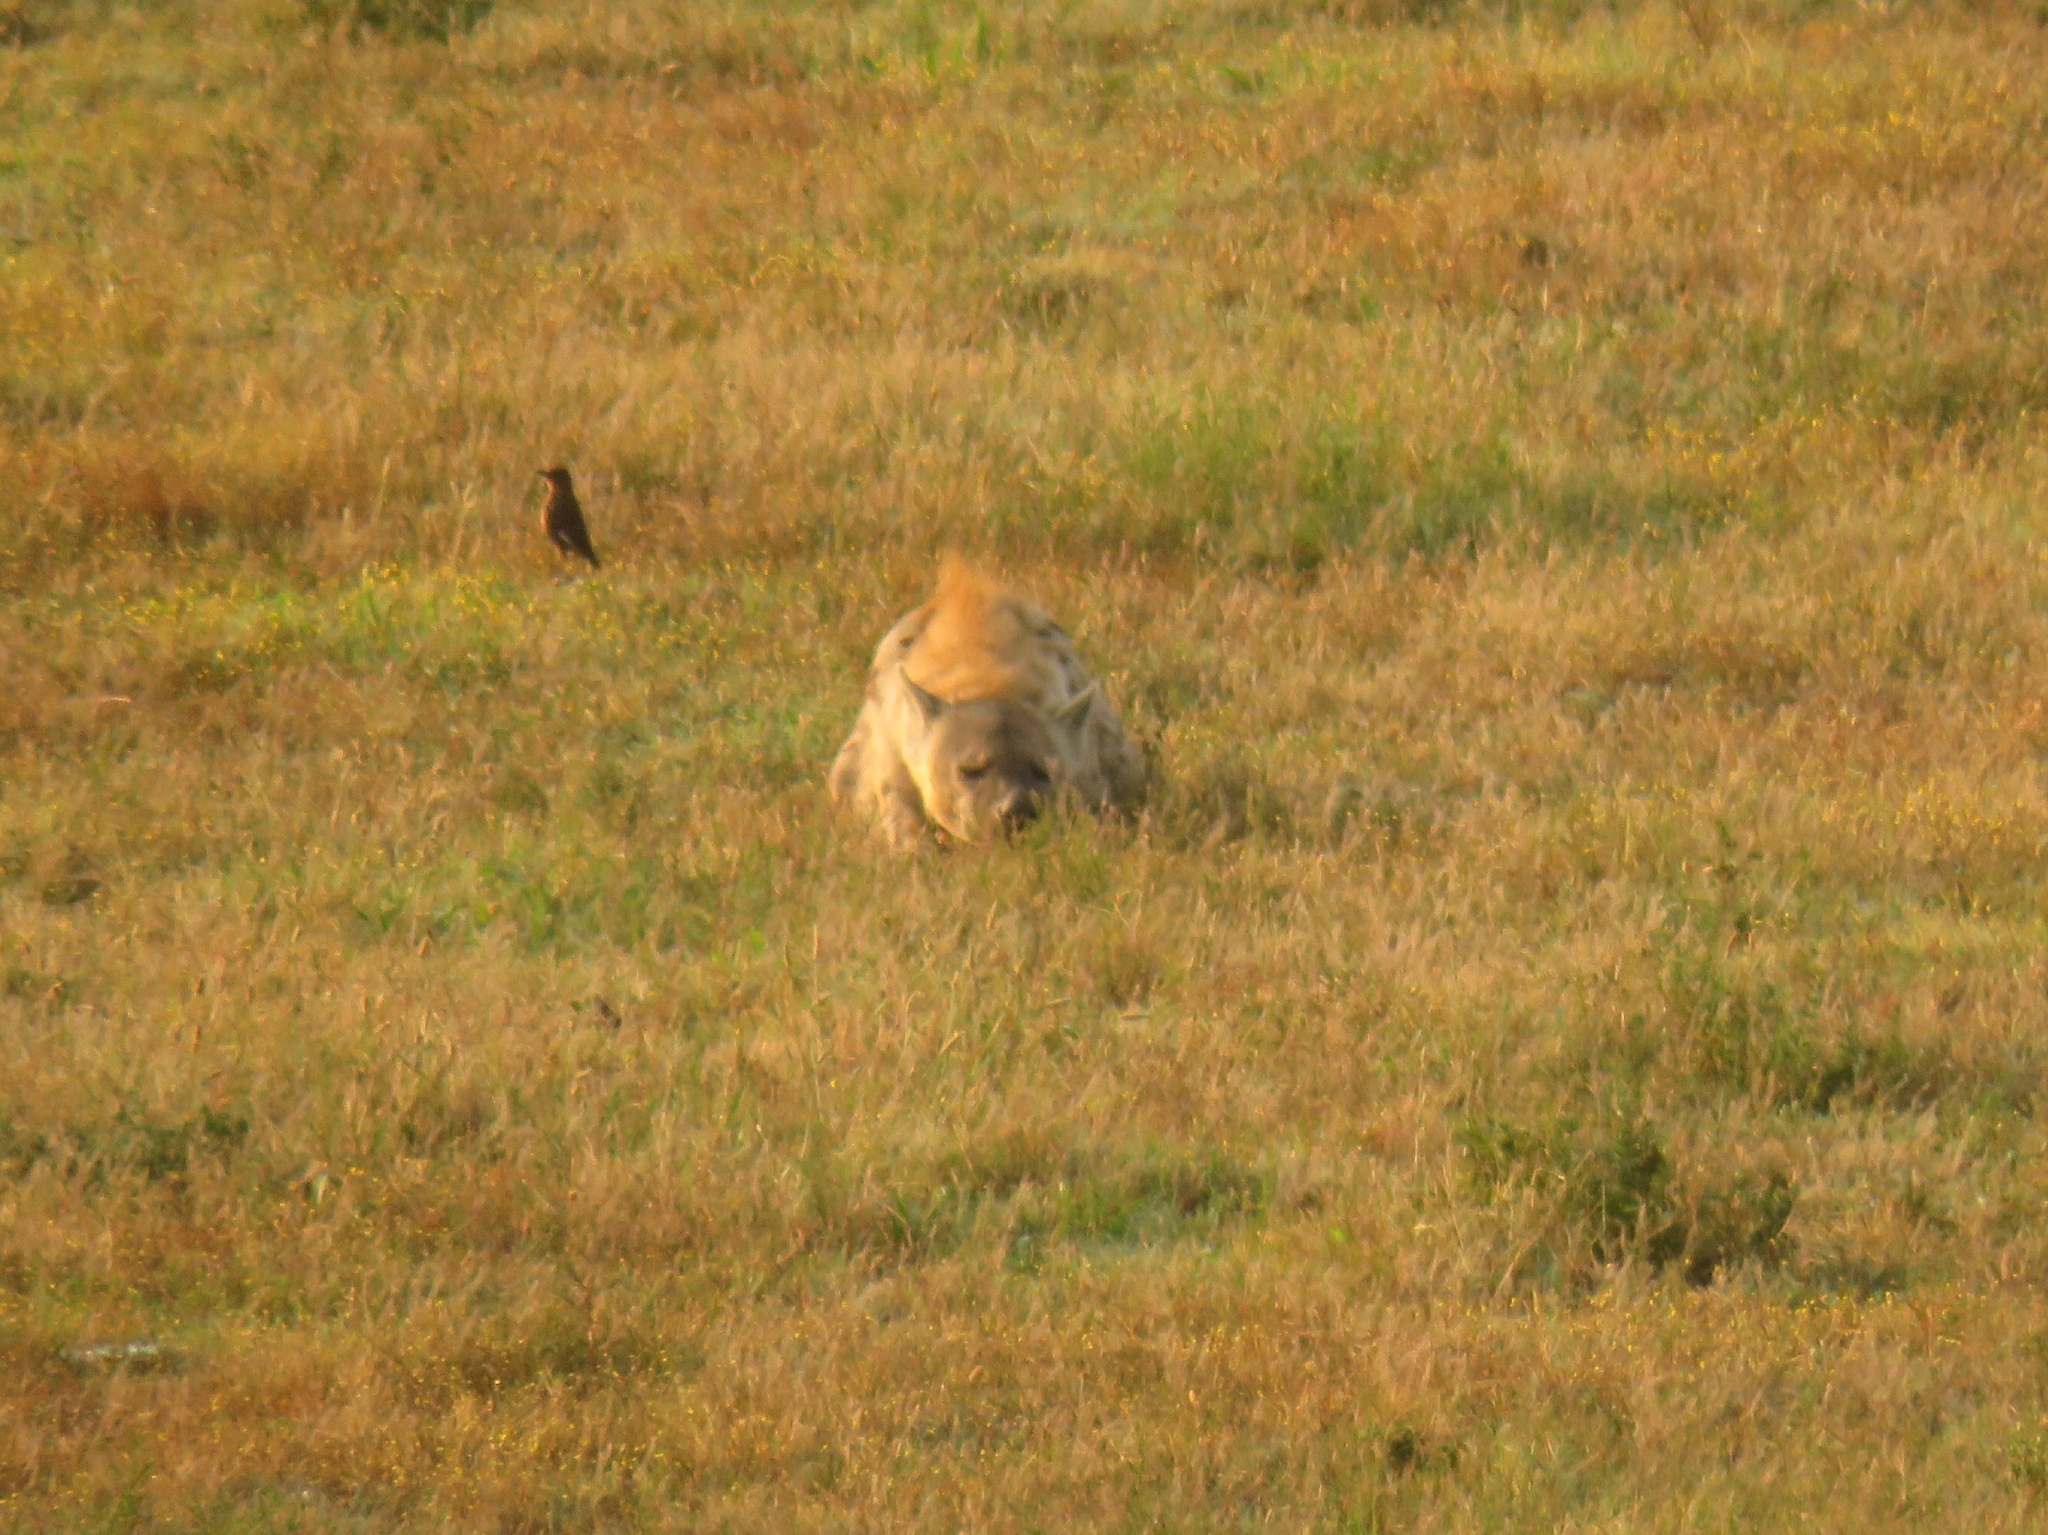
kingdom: Animalia
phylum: Chordata
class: Mammalia
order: Carnivora
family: Hyaenidae
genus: Crocuta
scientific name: Crocuta crocuta
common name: Spotted hyaena
